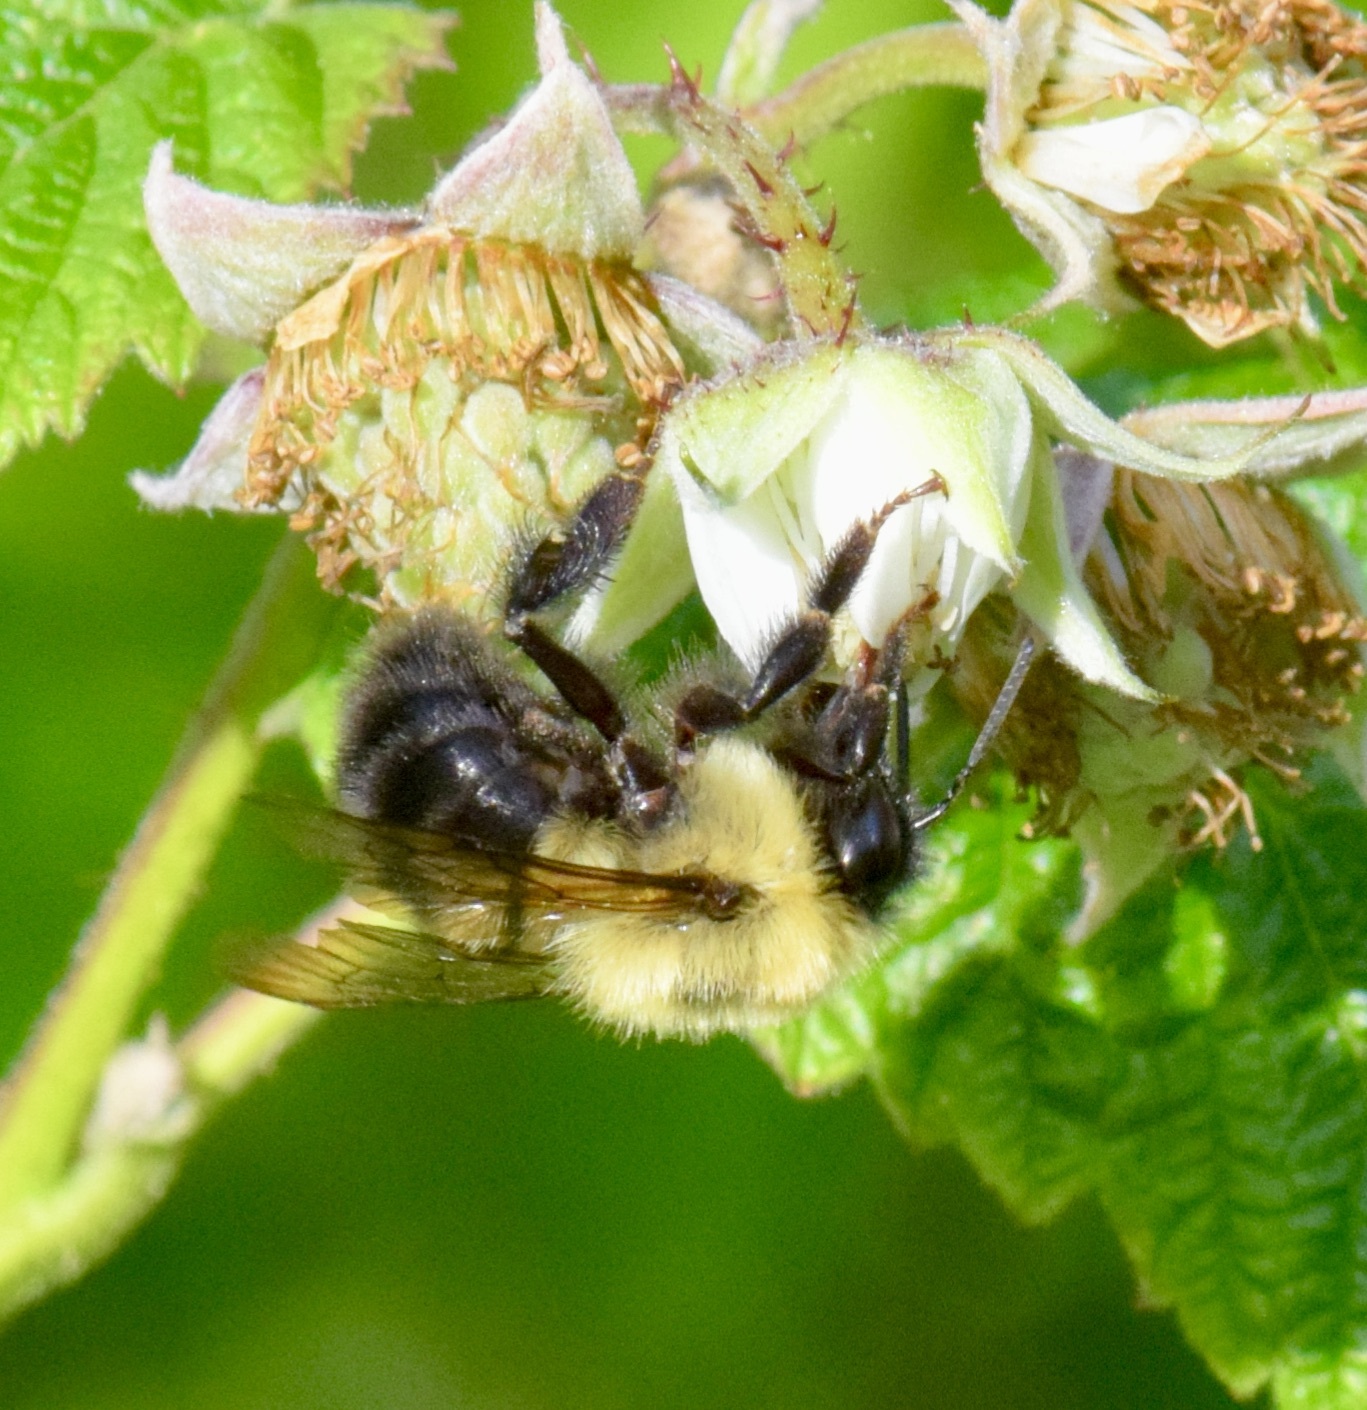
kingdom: Animalia
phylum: Arthropoda
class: Insecta
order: Hymenoptera
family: Apidae
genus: Bombus
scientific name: Bombus bimaculatus
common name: Two-spotted bumble bee
